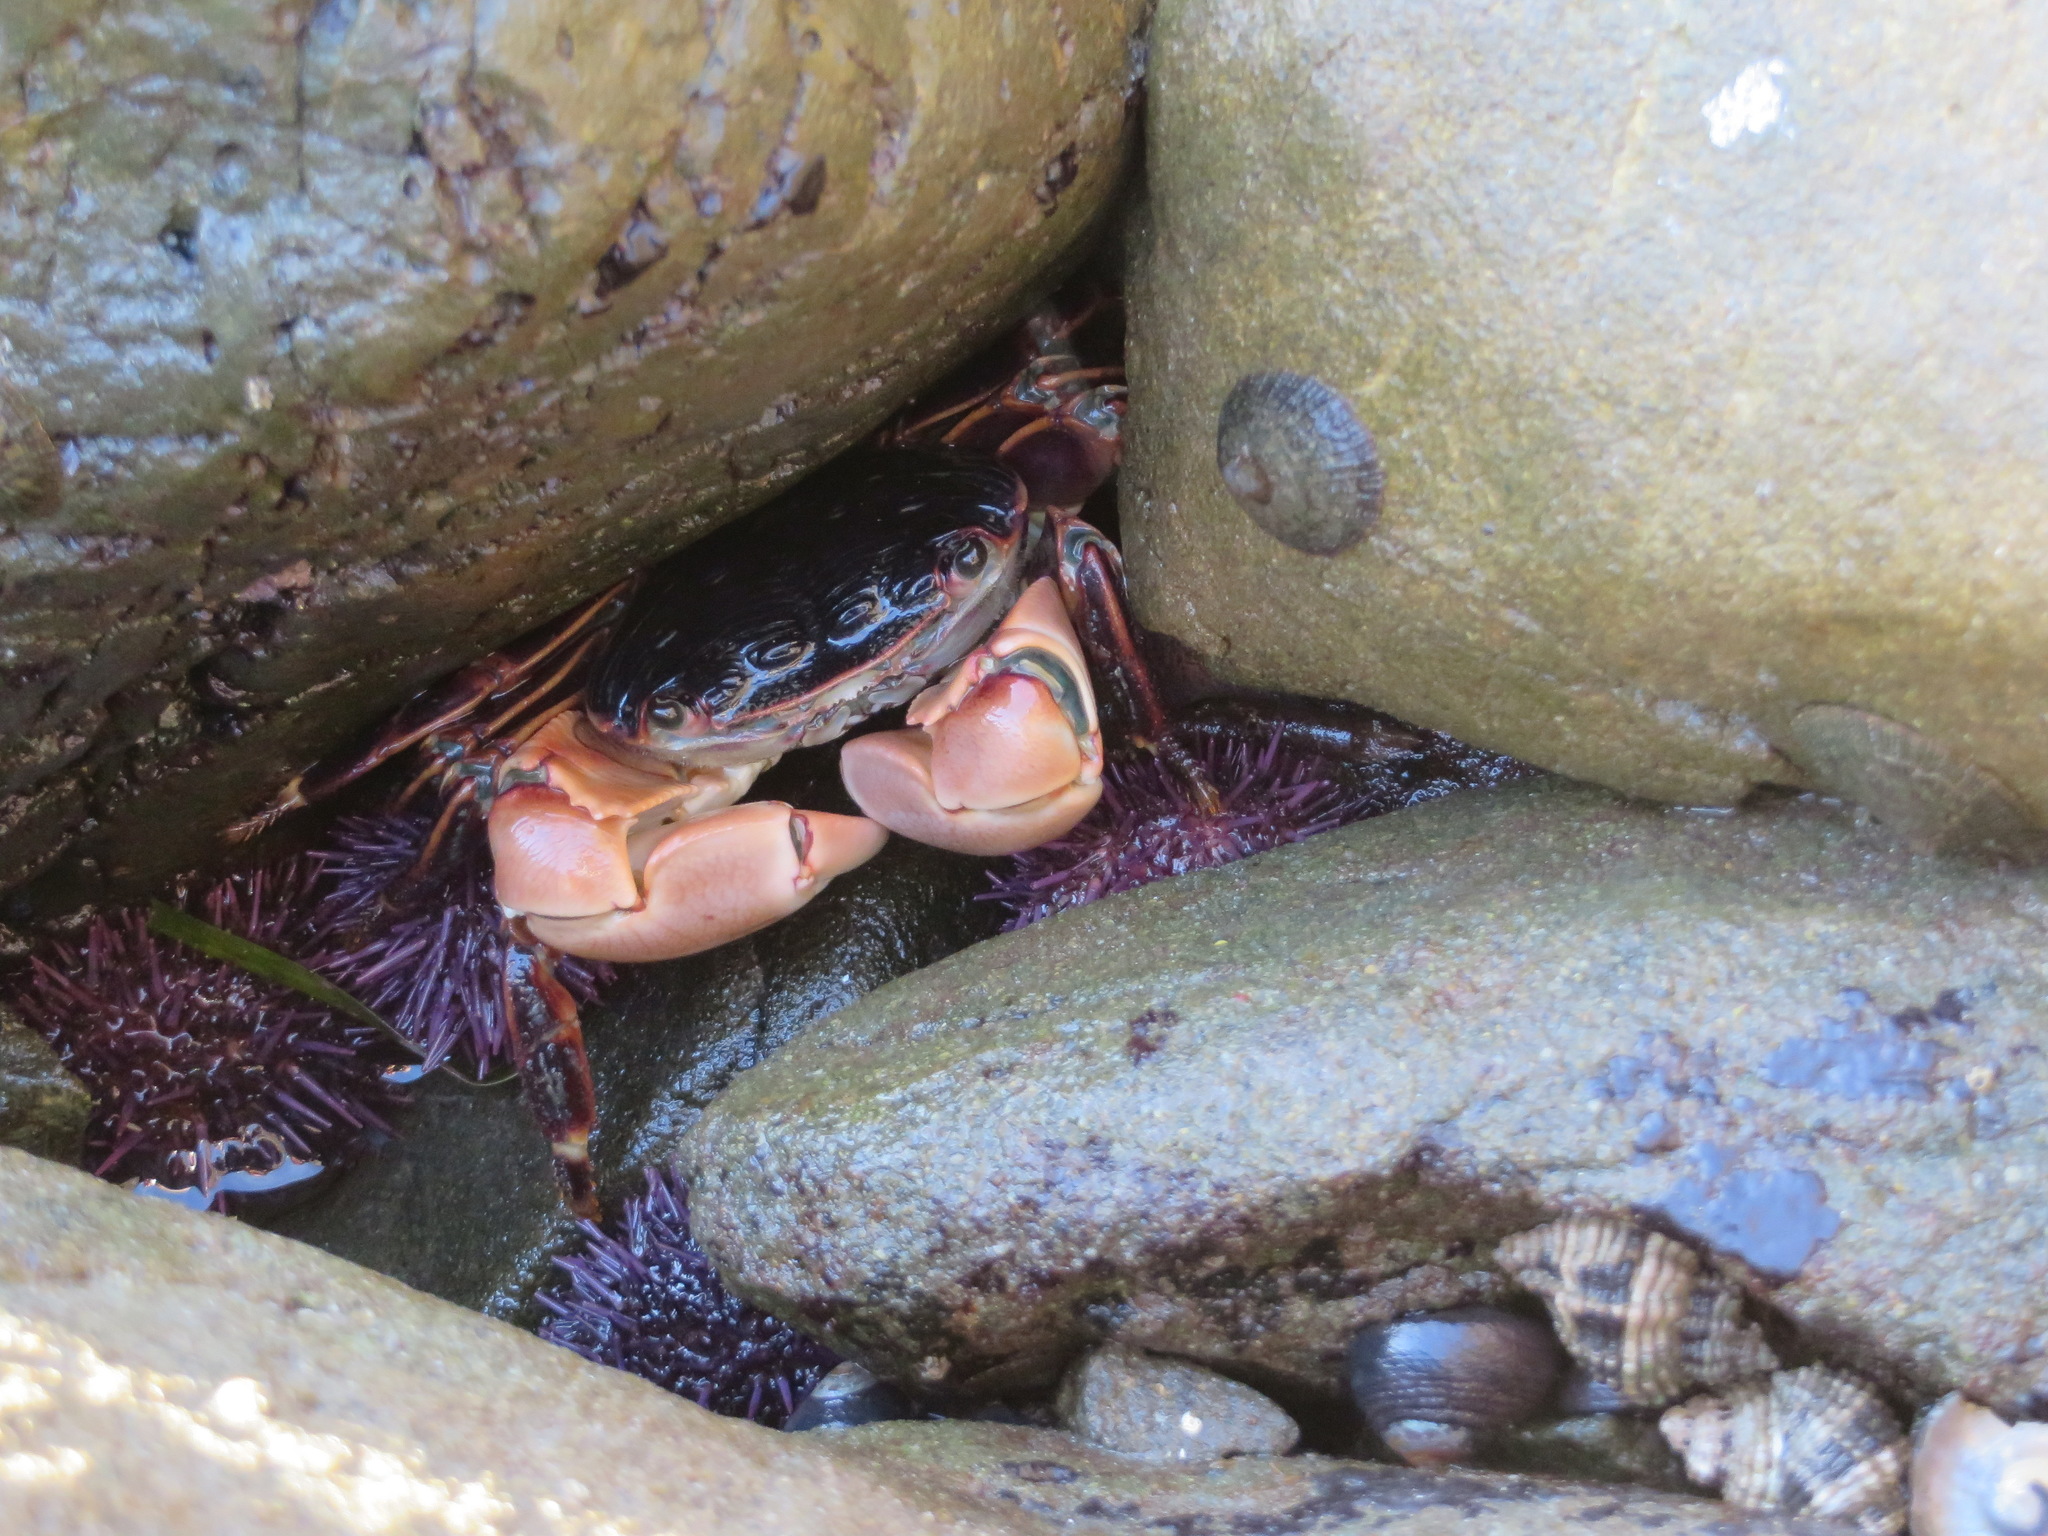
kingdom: Animalia
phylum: Arthropoda
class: Malacostraca
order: Decapoda
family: Grapsidae
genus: Pachygrapsus
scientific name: Pachygrapsus crassipes
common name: Striped shore crab
